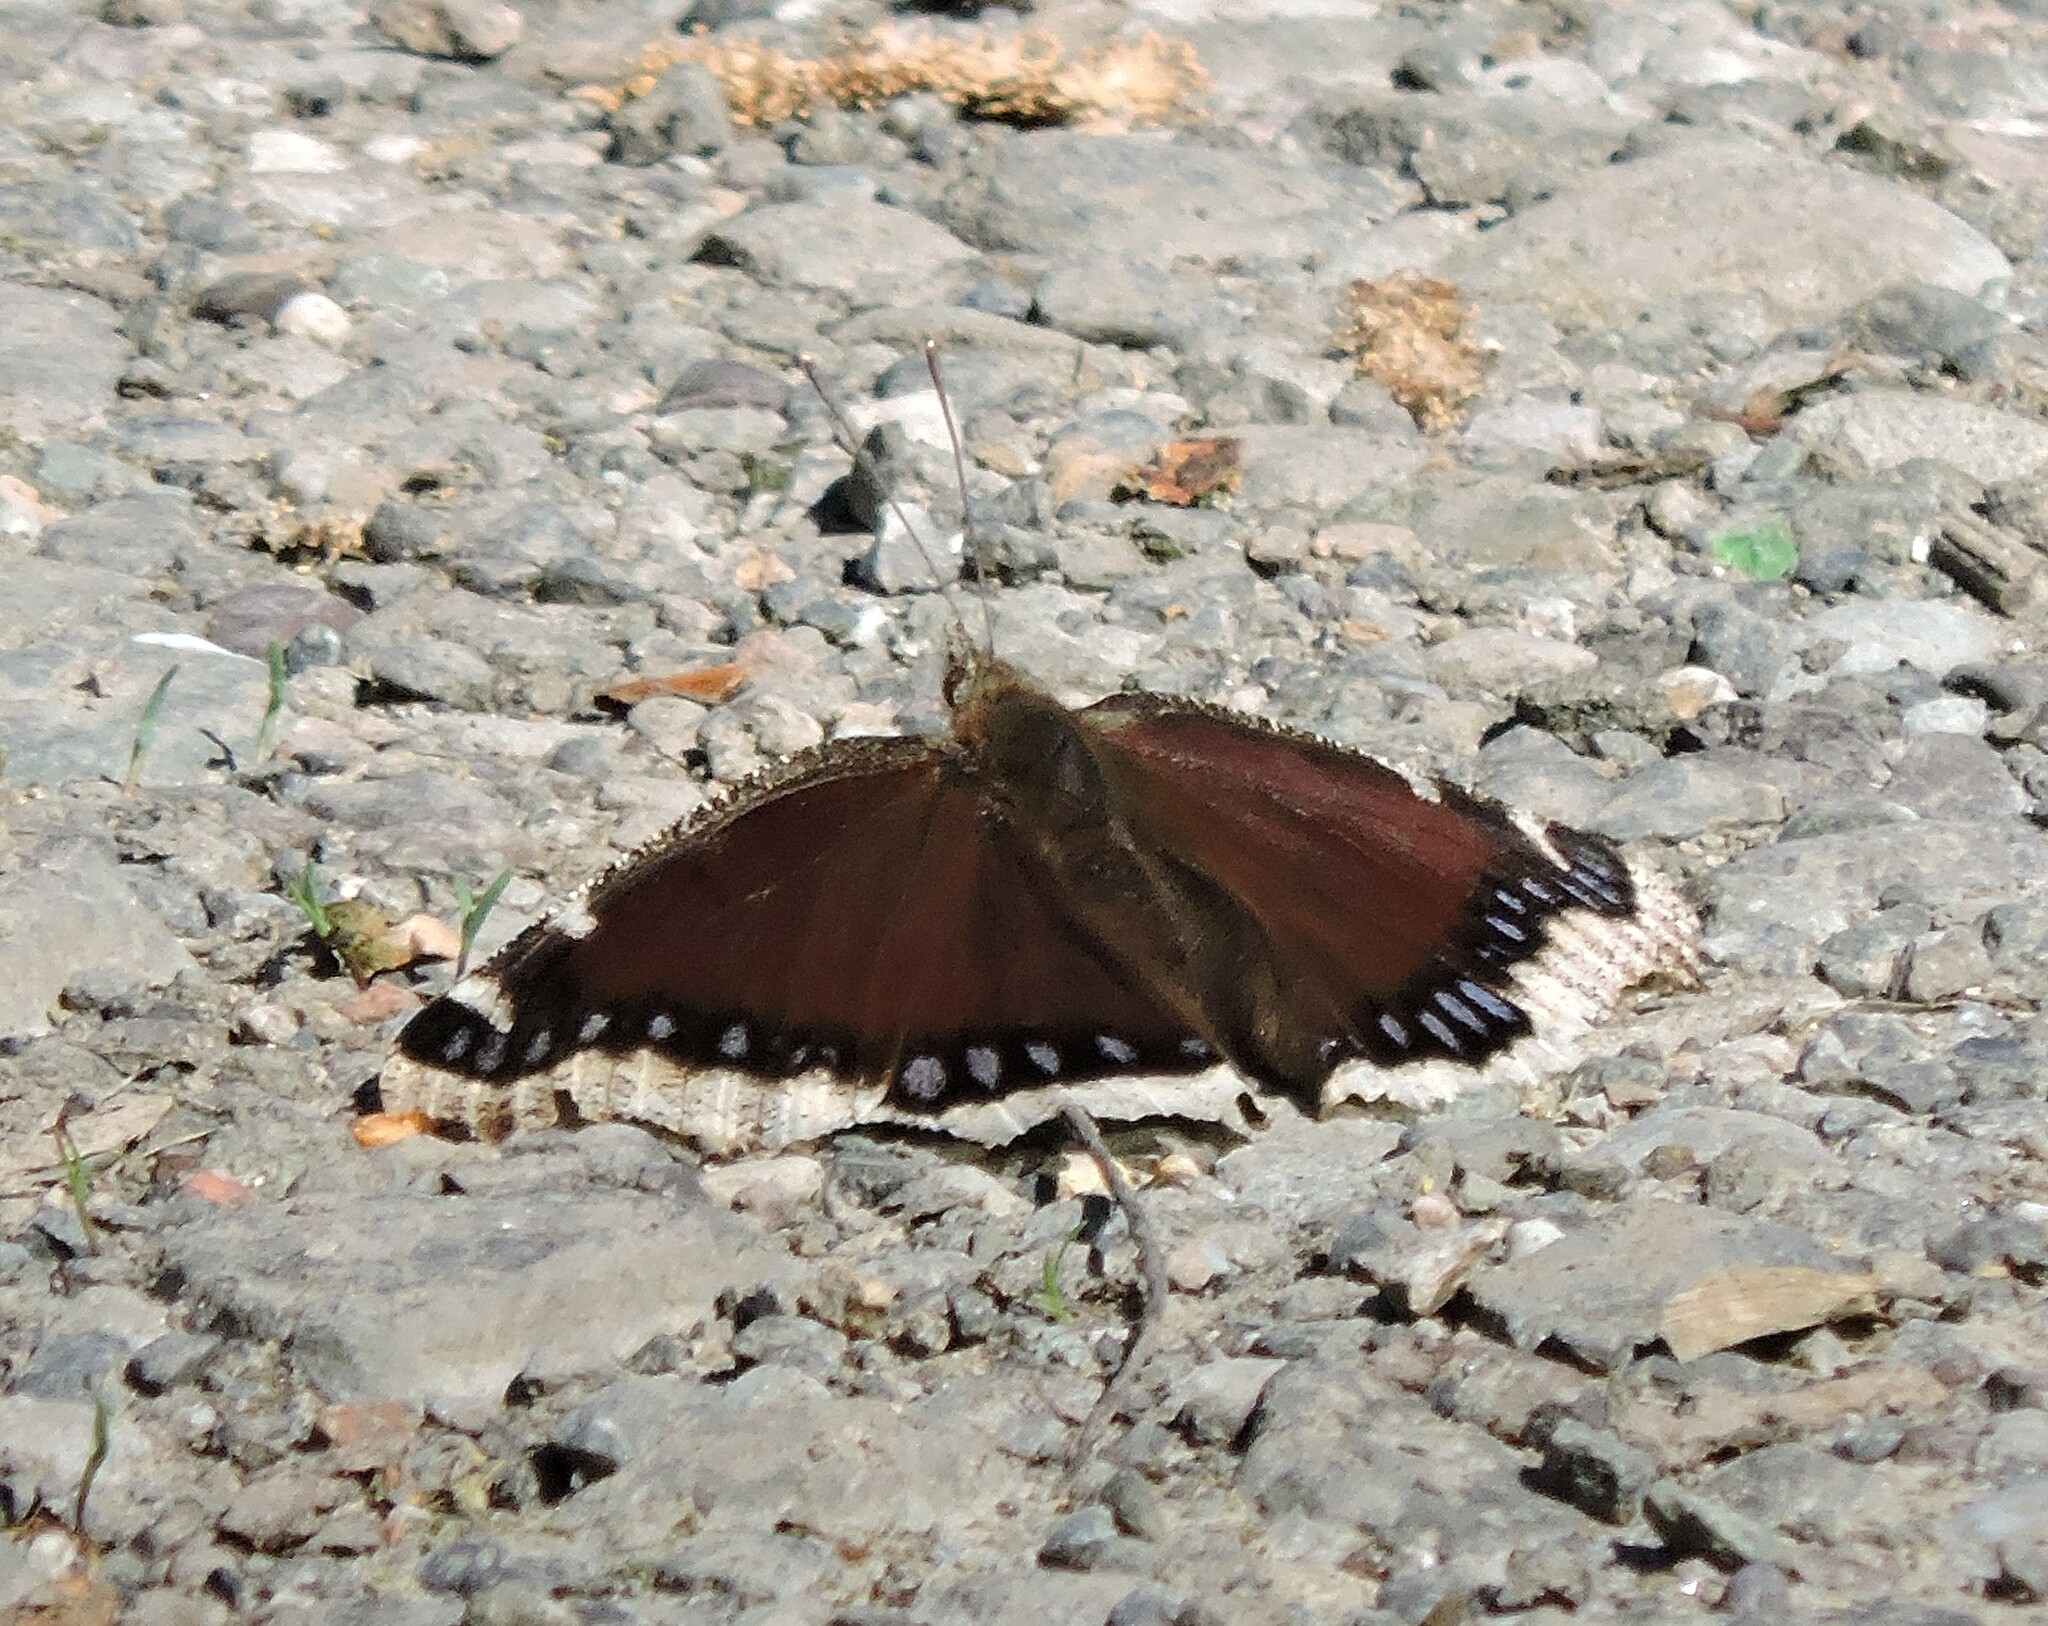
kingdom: Animalia
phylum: Arthropoda
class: Insecta
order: Lepidoptera
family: Nymphalidae
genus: Nymphalis
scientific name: Nymphalis antiopa
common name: Camberwell beauty
